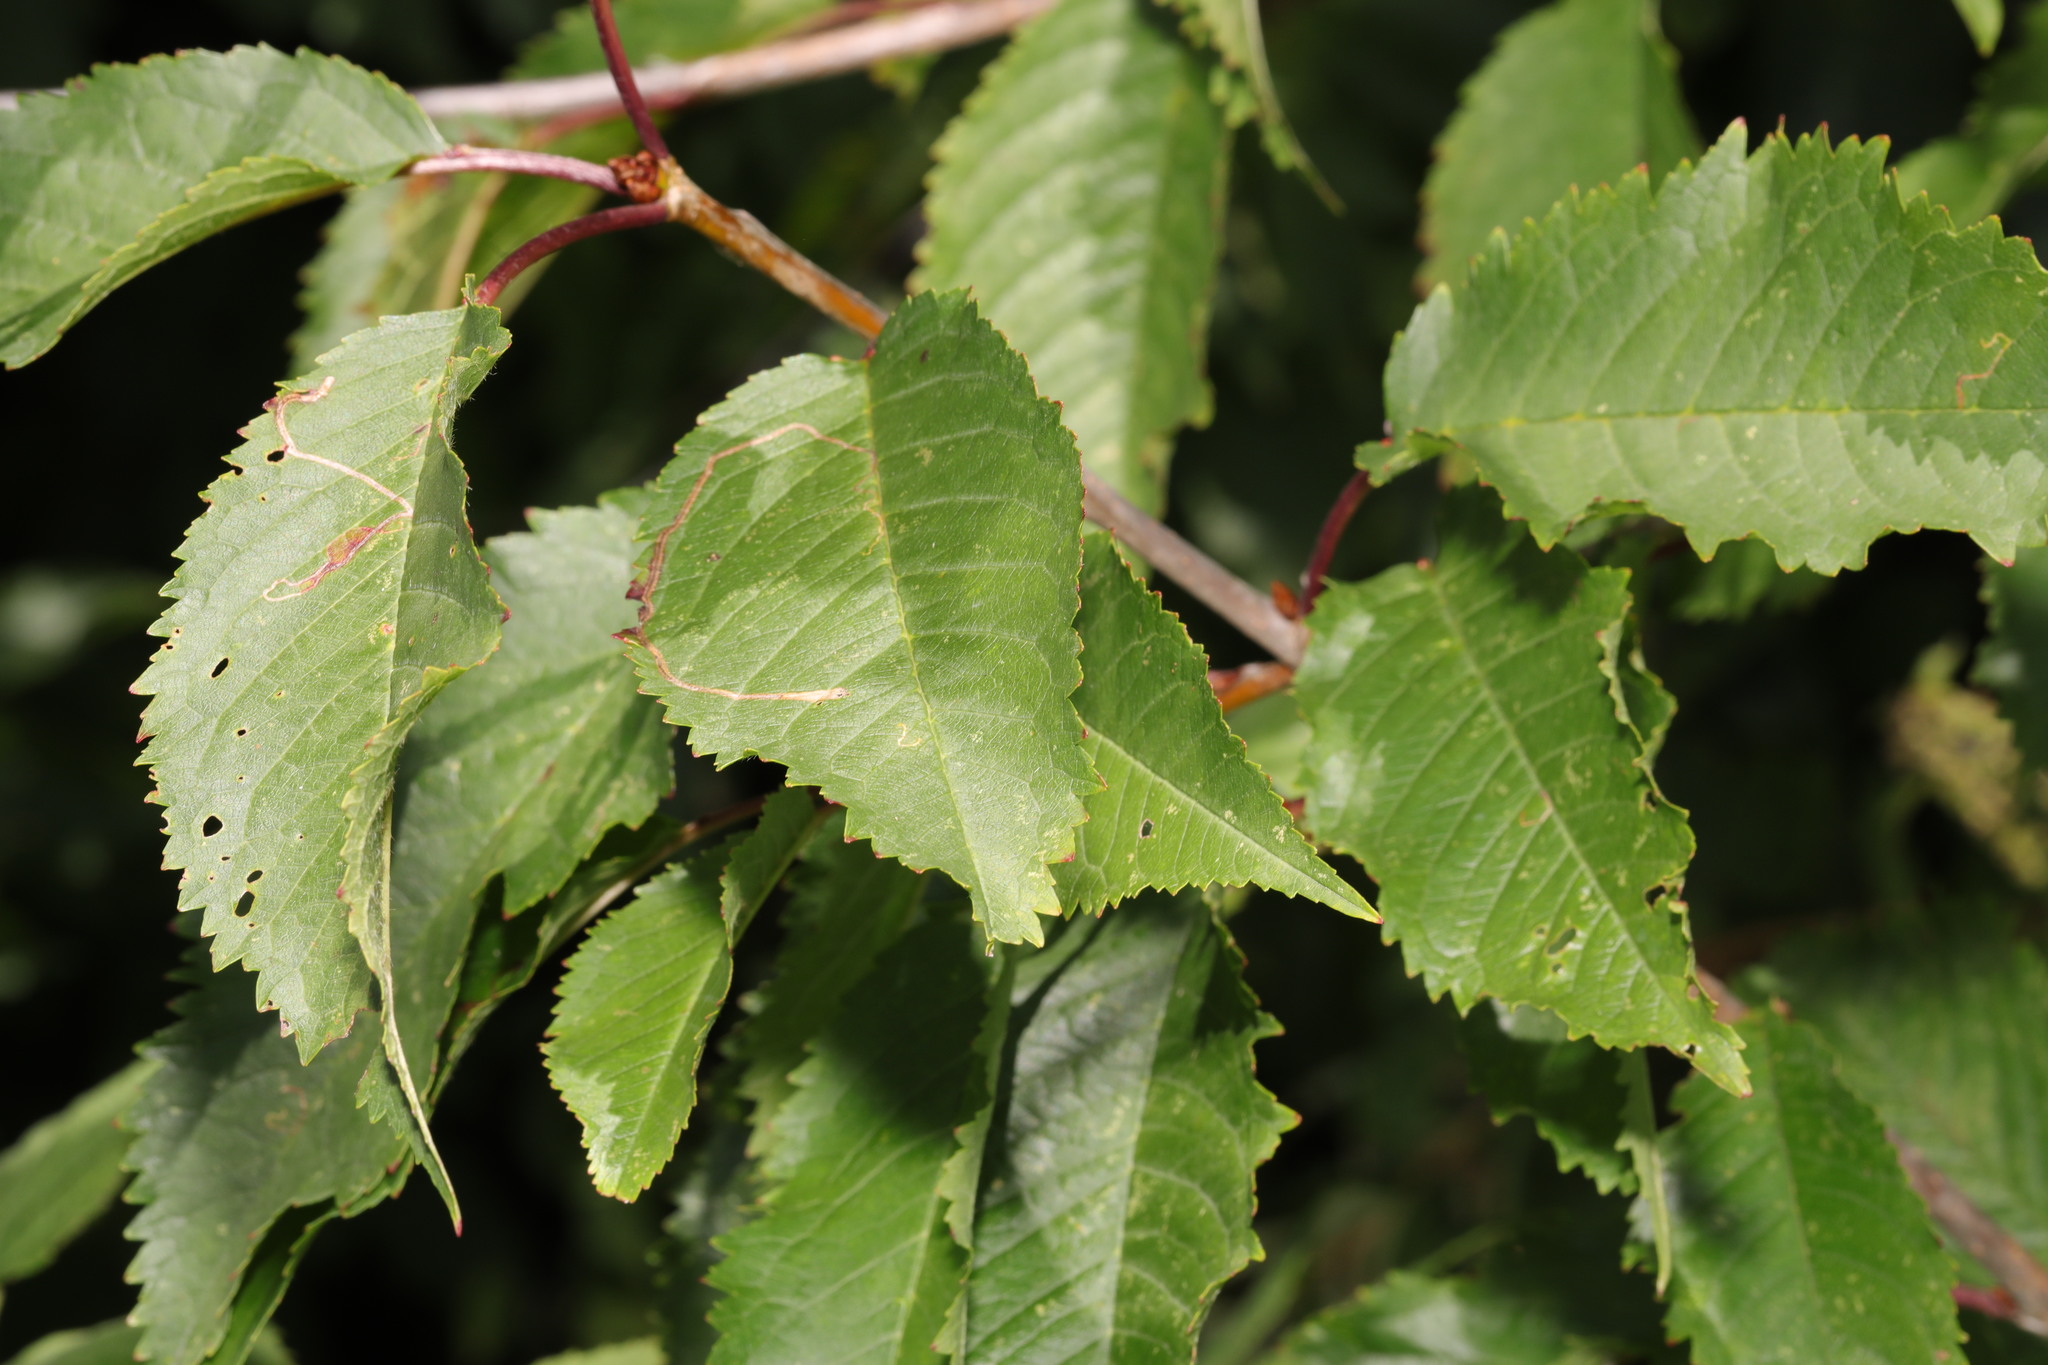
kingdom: Plantae
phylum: Tracheophyta
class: Magnoliopsida
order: Rosales
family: Rosaceae
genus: Prunus
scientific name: Prunus avium
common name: Sweet cherry
